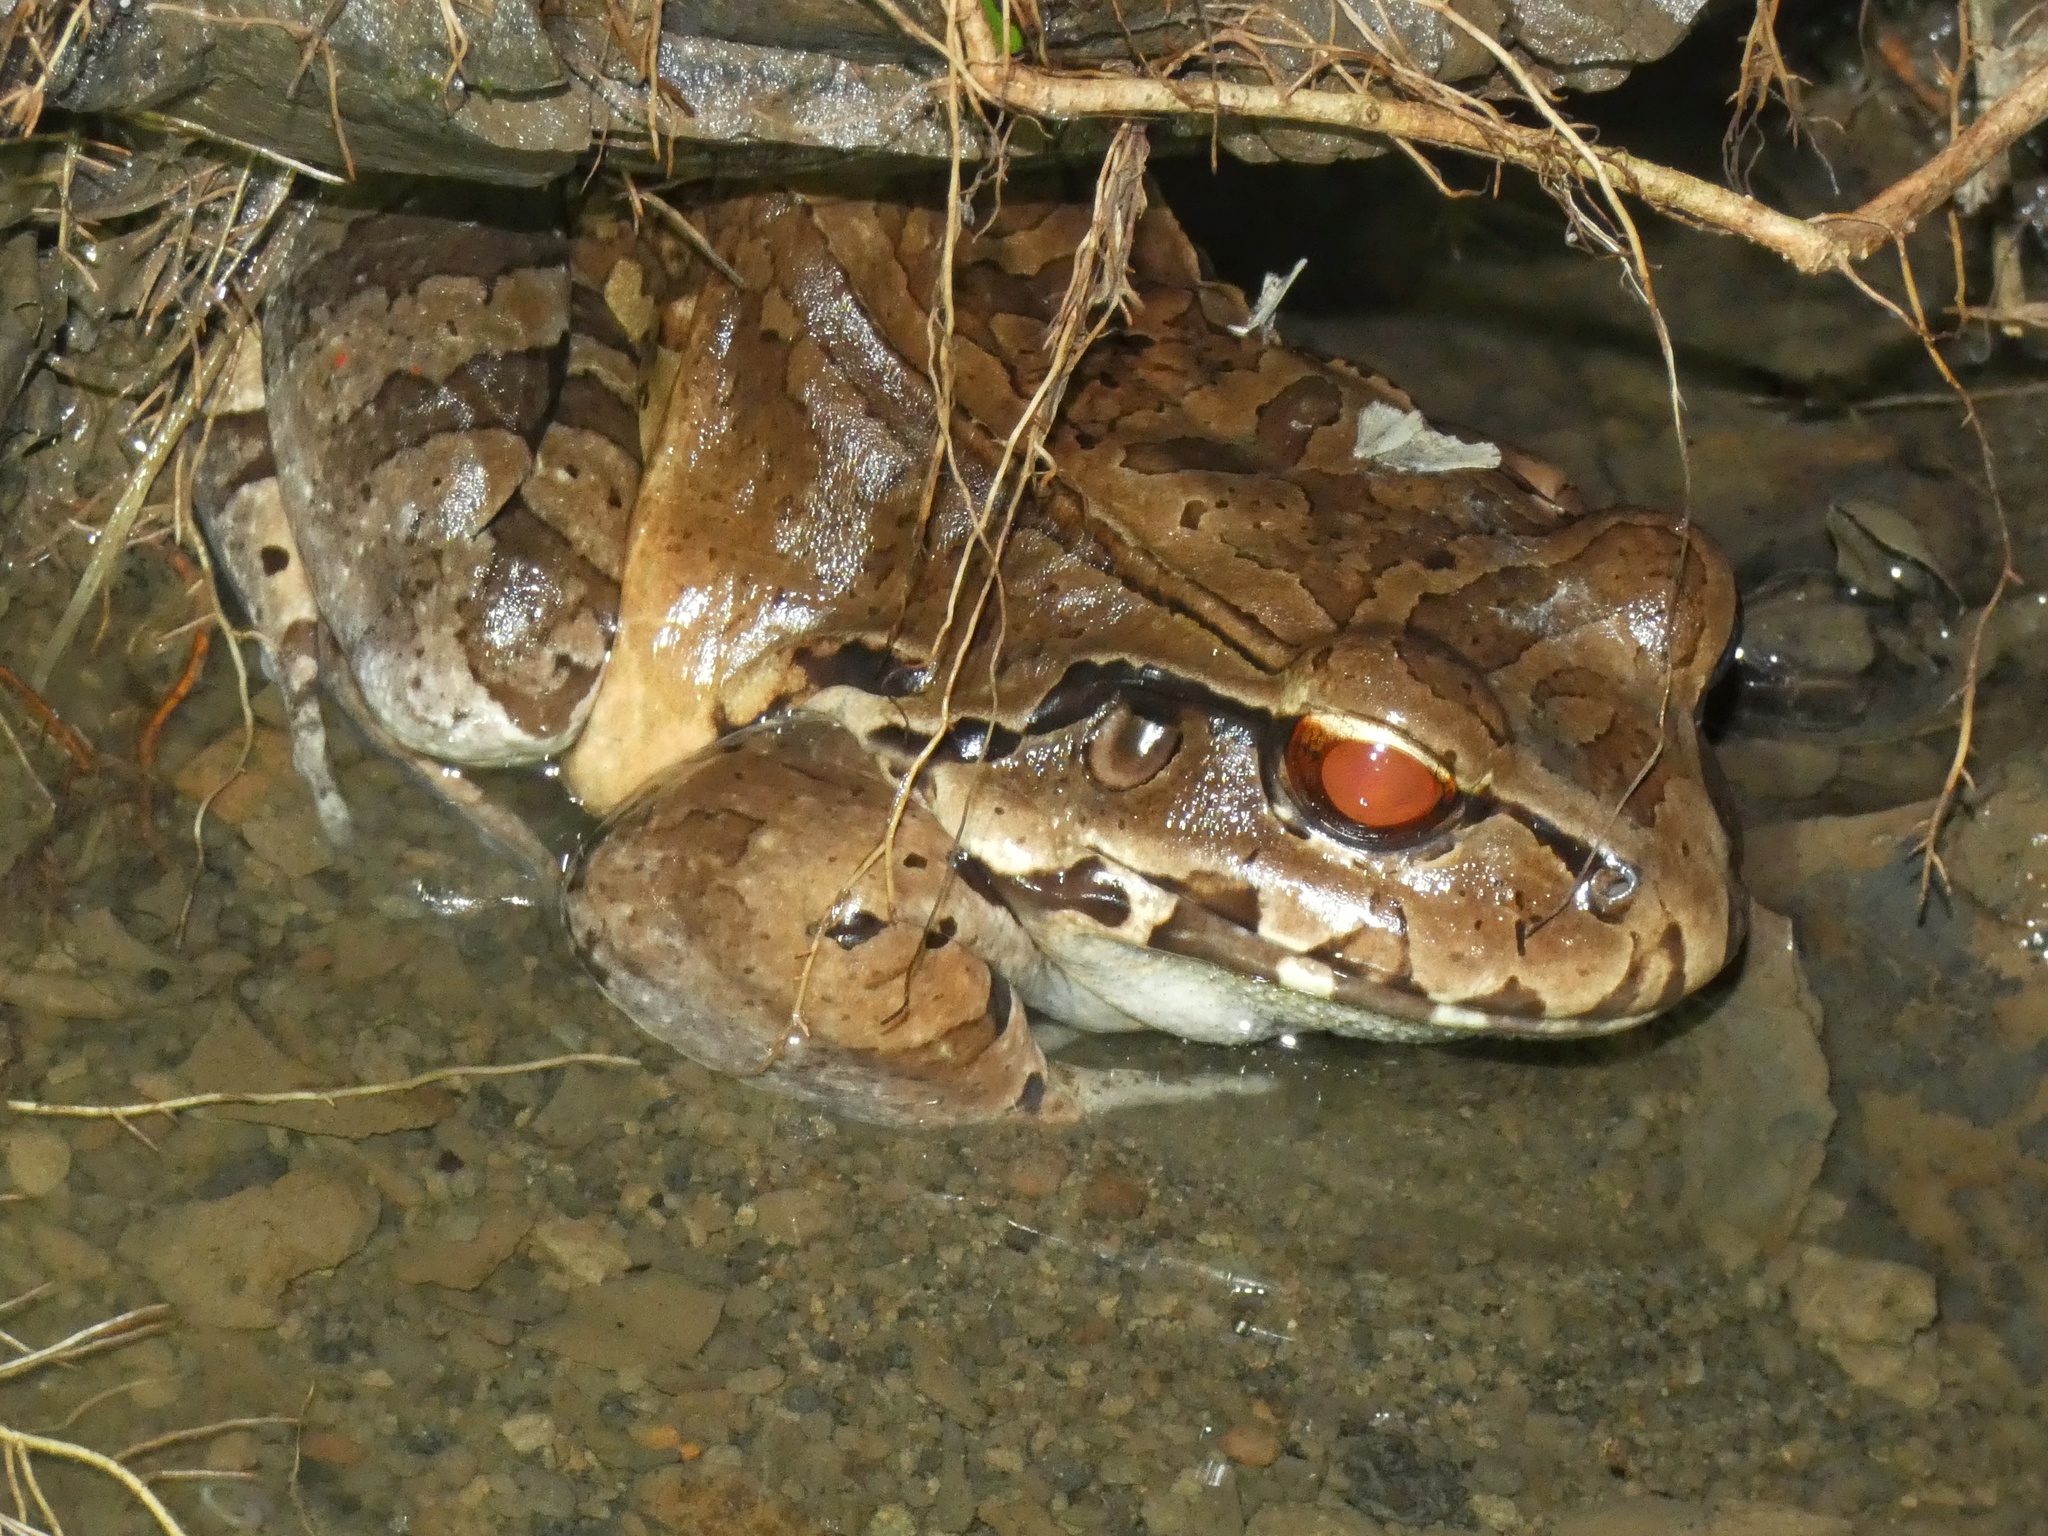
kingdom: Animalia
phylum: Chordata
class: Amphibia
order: Anura
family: Leptodactylidae
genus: Leptodactylus
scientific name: Leptodactylus savagei
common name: Savage's thin-toed frog
